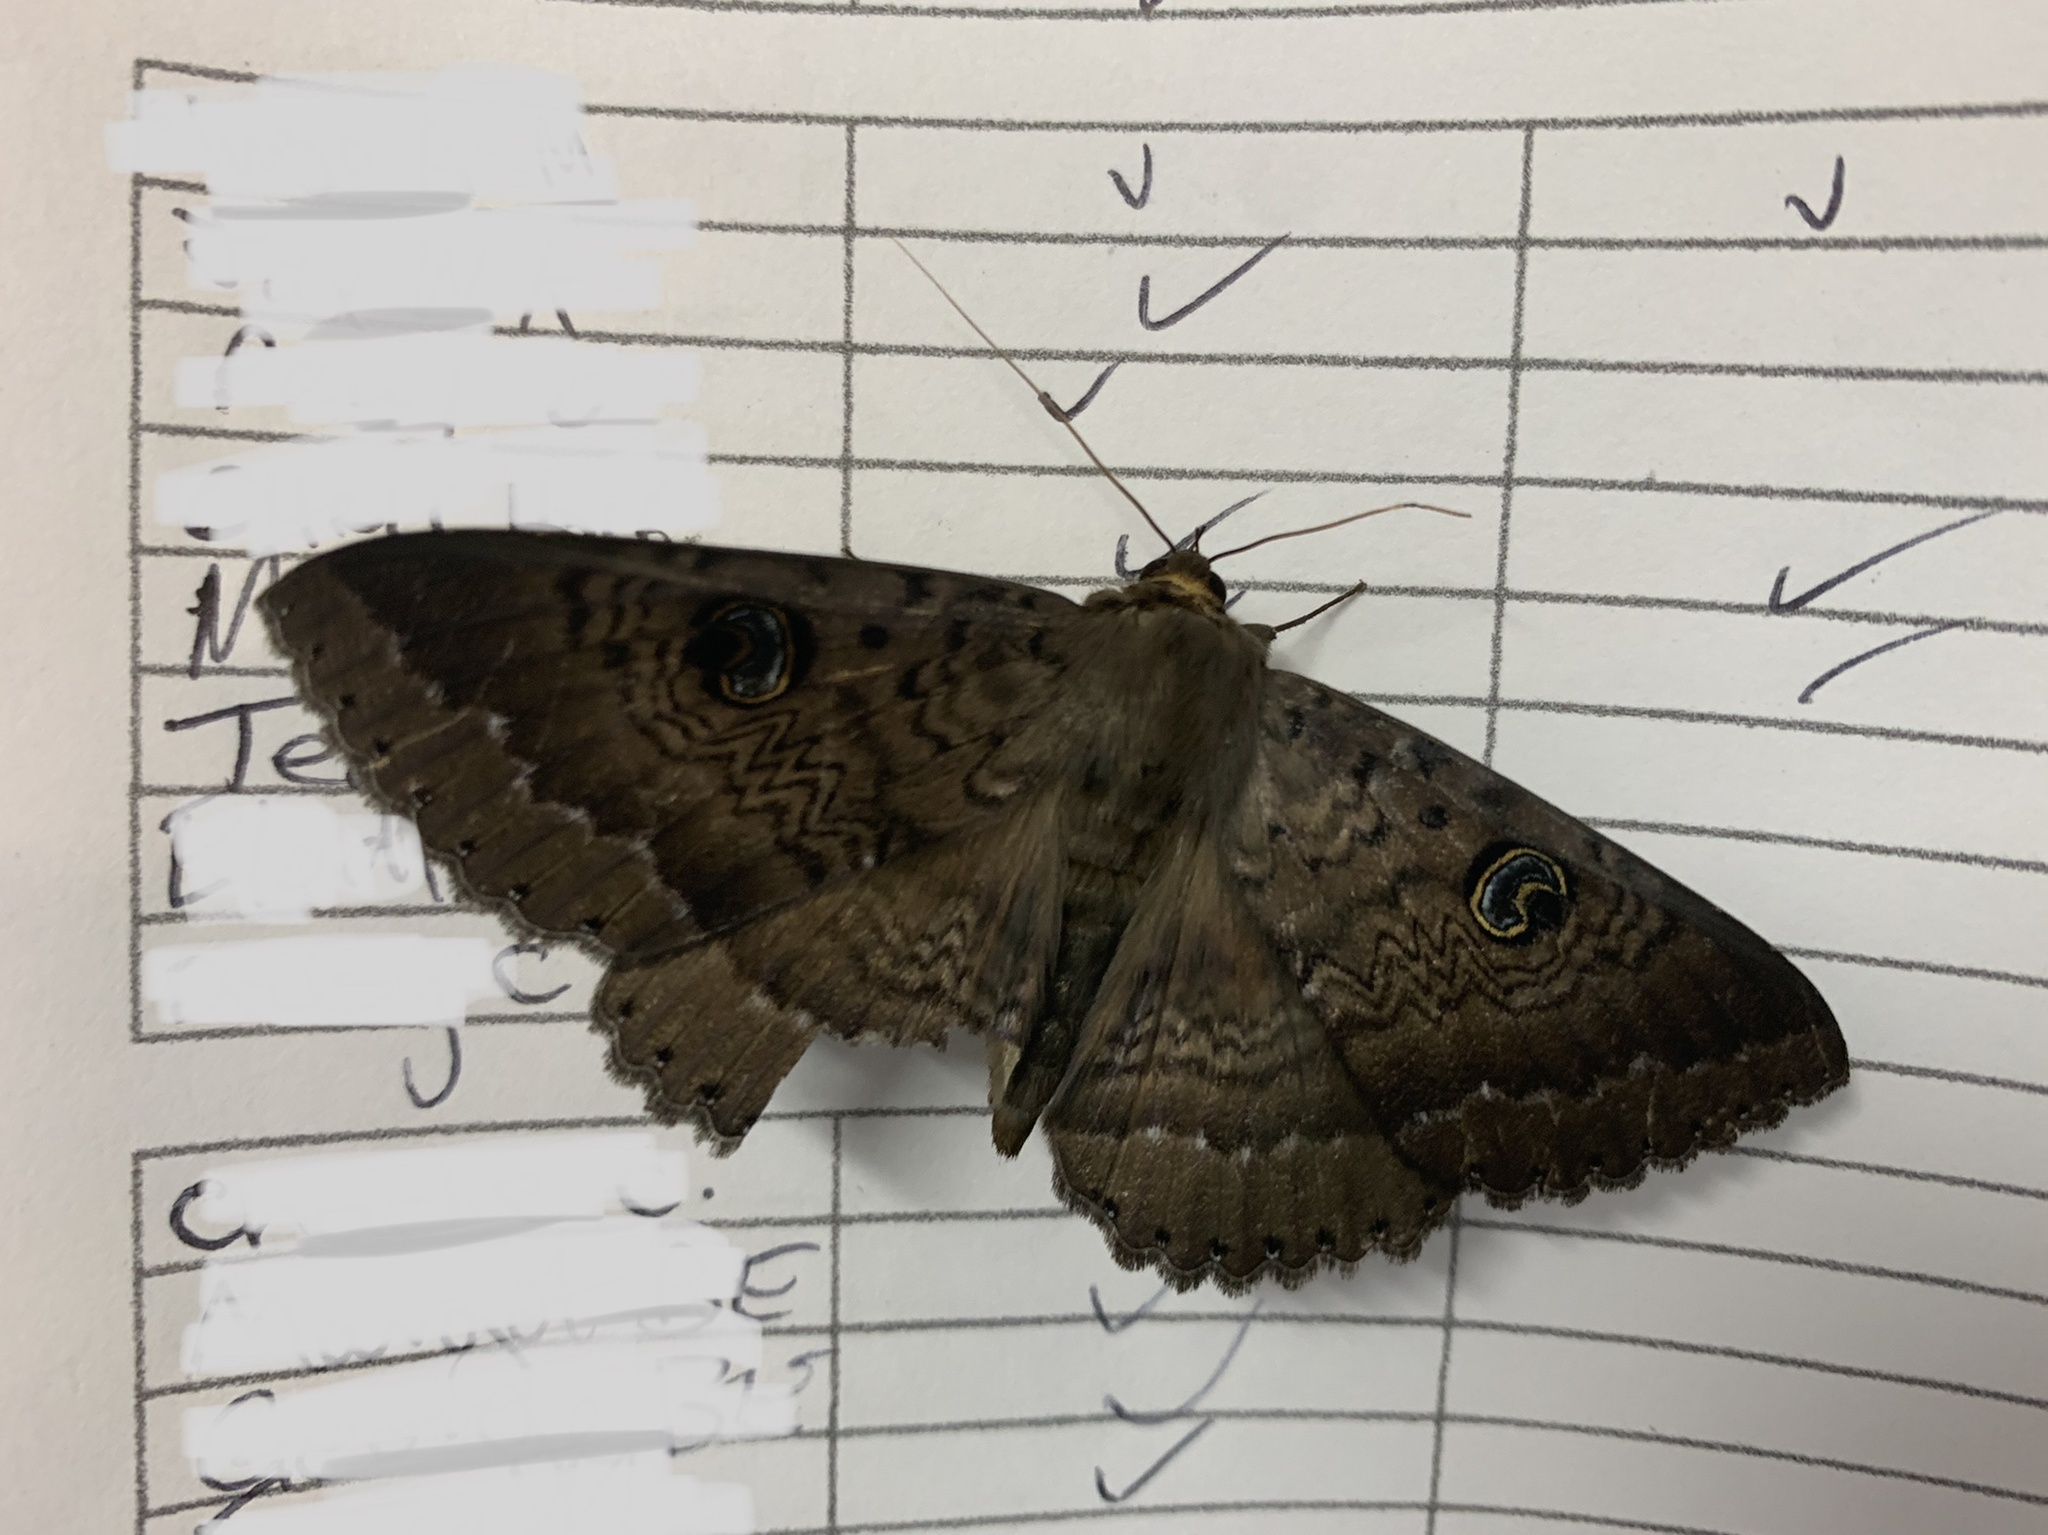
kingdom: Animalia
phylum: Arthropoda
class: Insecta
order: Lepidoptera
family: Erebidae
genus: Dasypodia
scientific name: Dasypodia cymatodes
